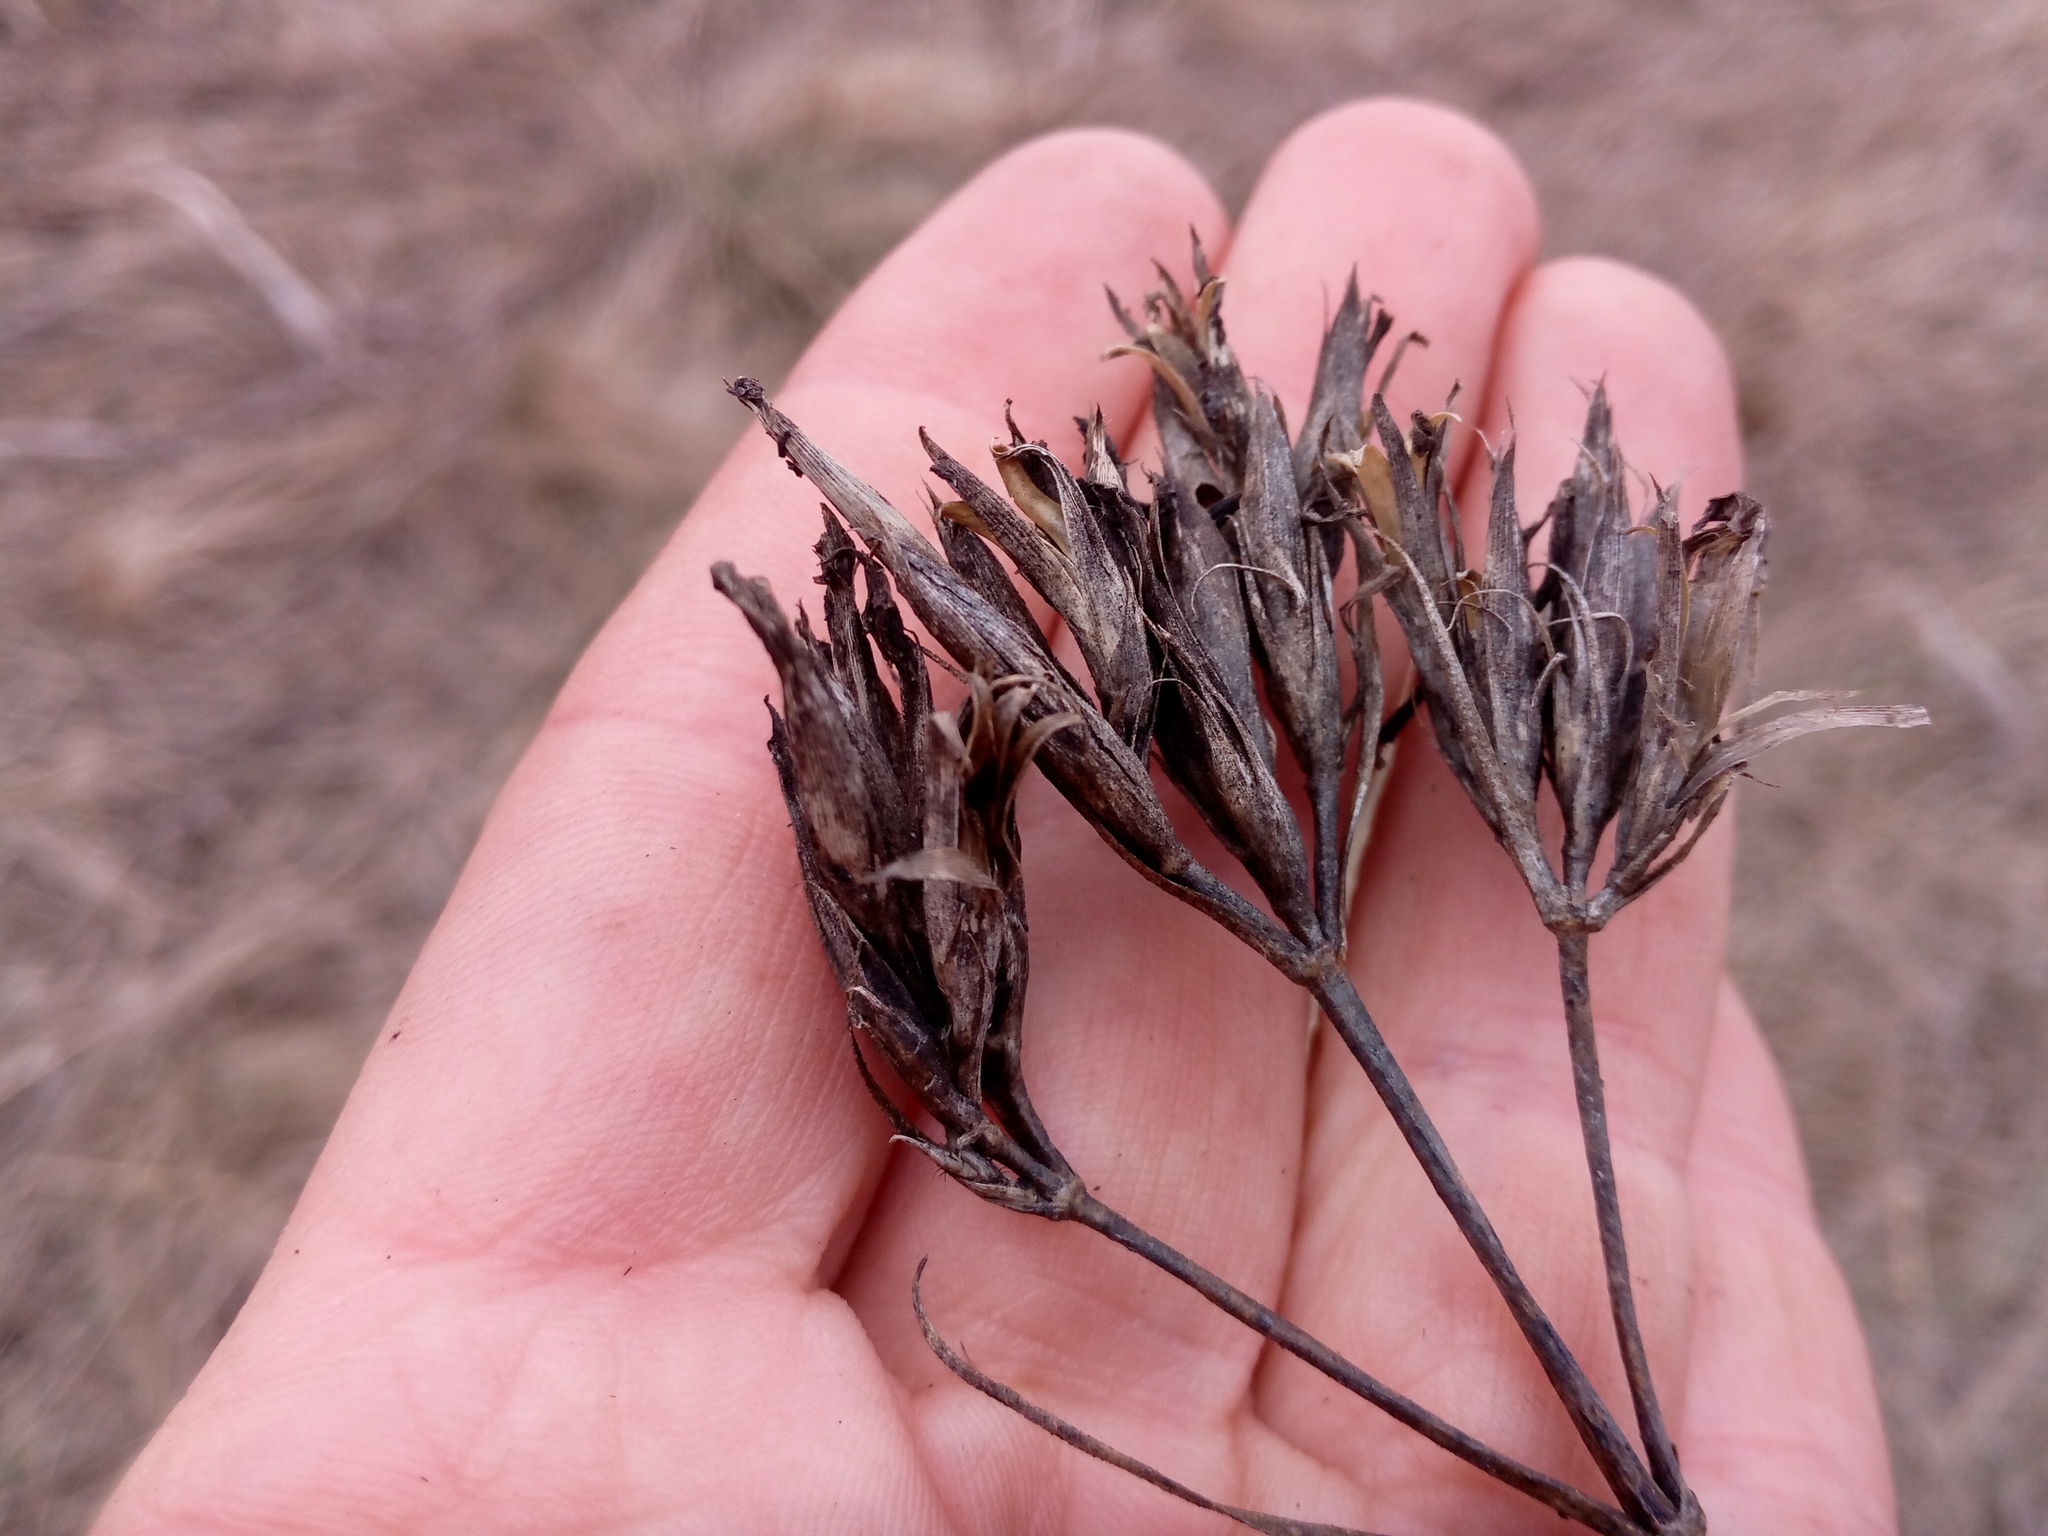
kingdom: Plantae
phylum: Tracheophyta
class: Magnoliopsida
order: Caryophyllales
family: Caryophyllaceae
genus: Dianthus
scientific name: Dianthus trifasciculatus
